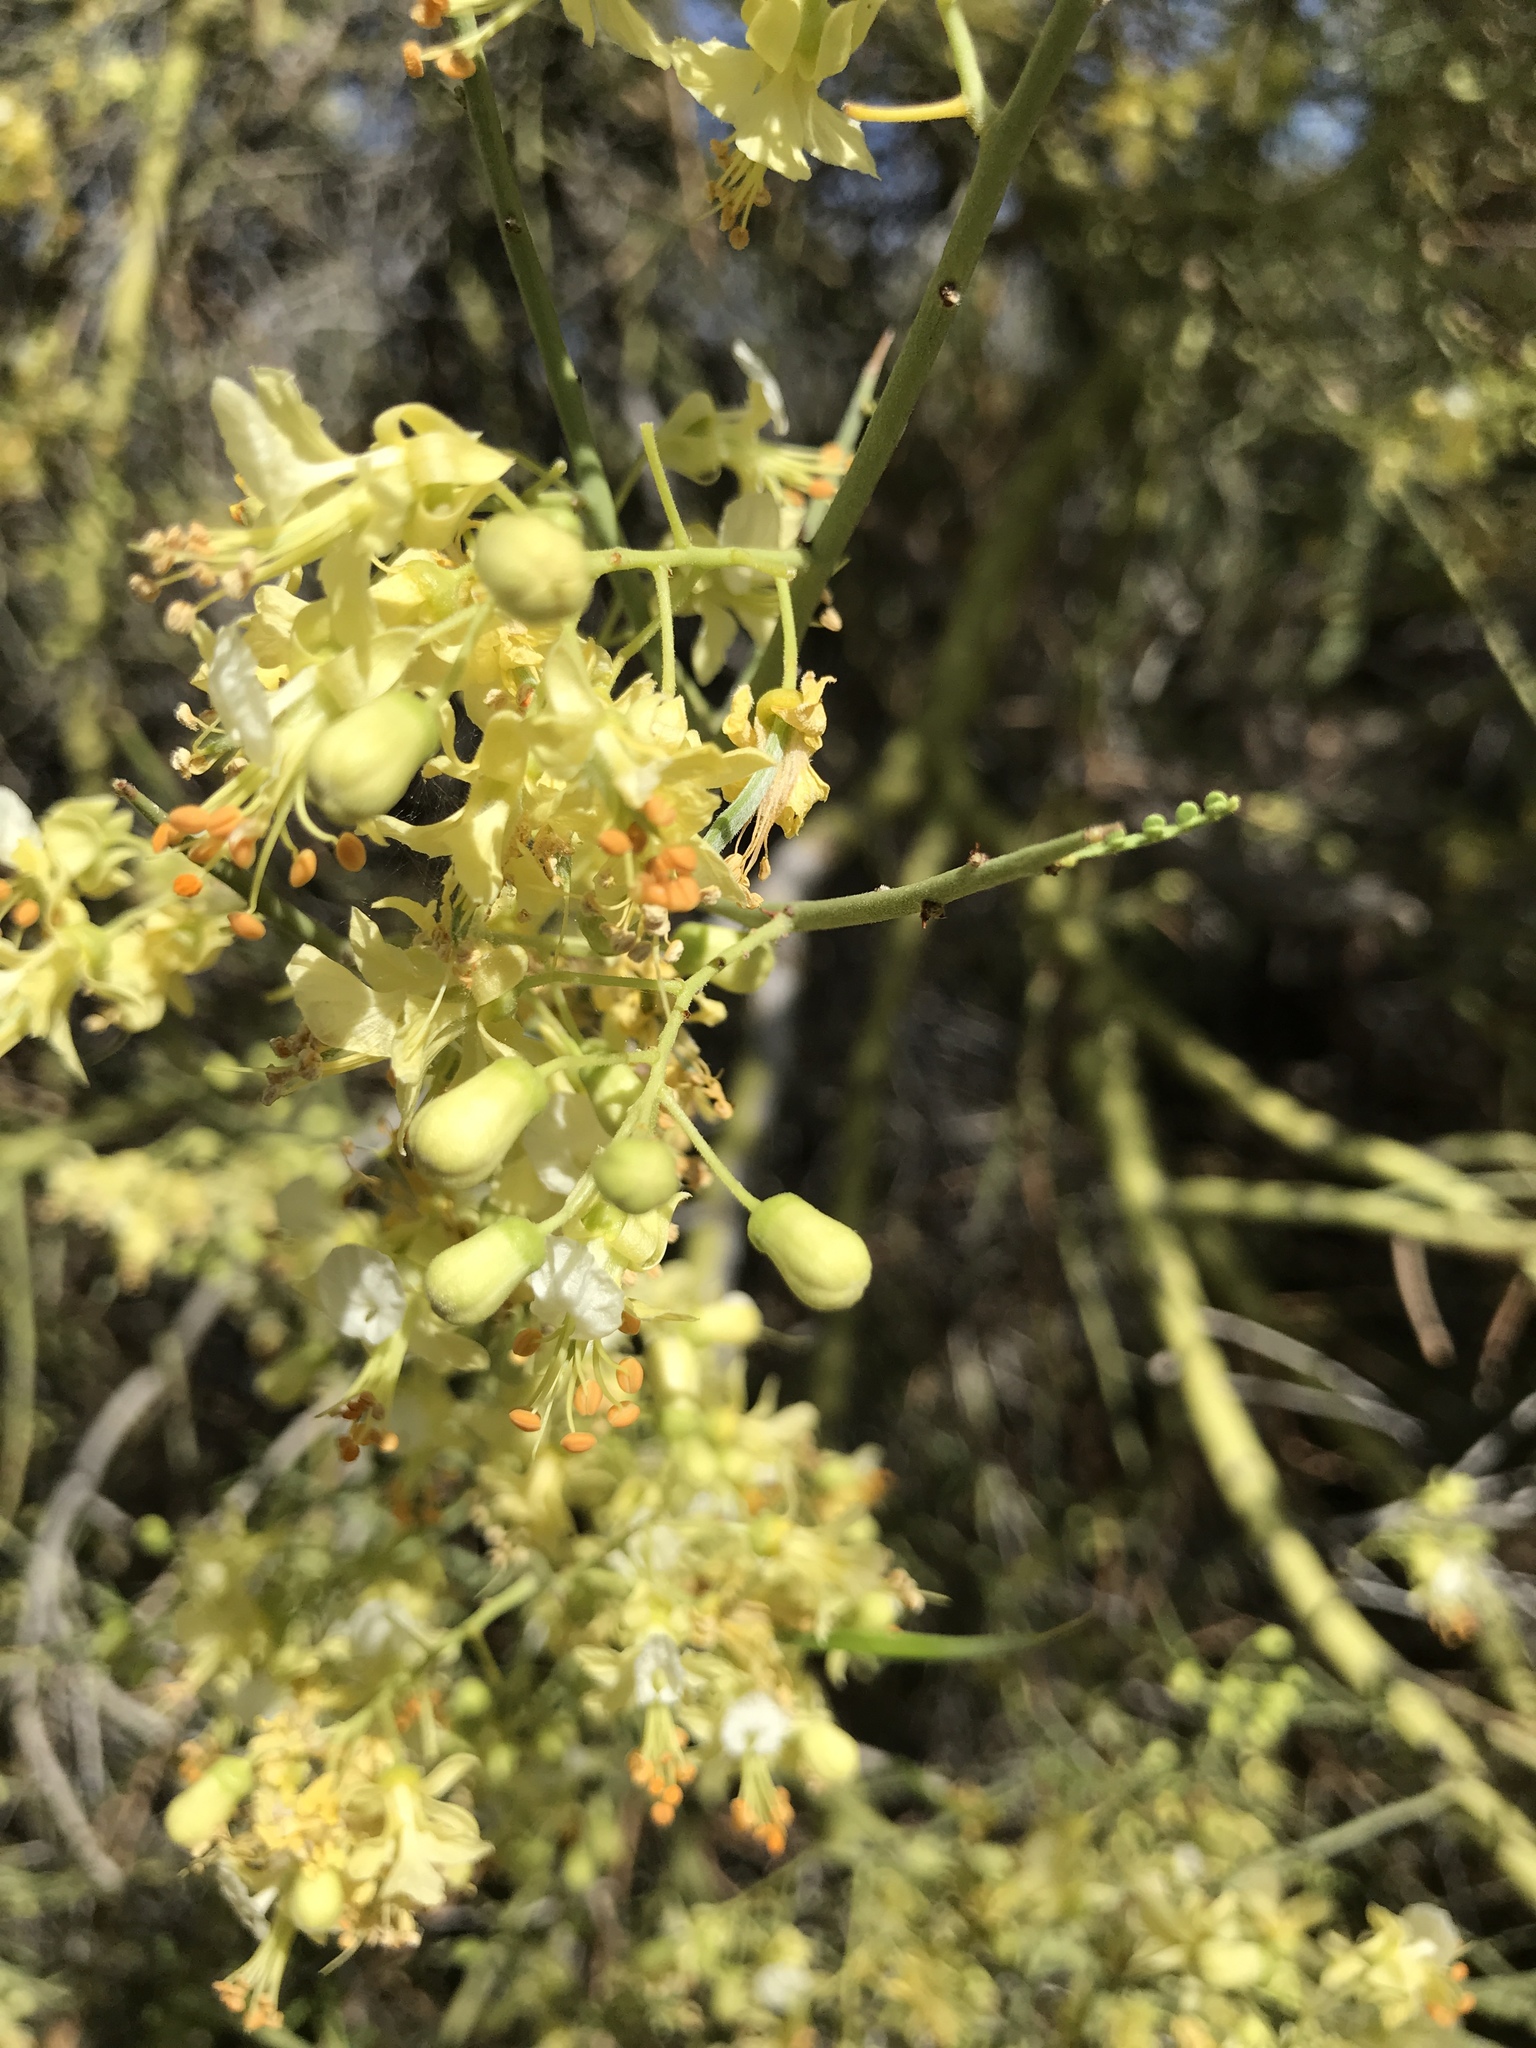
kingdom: Plantae
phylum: Tracheophyta
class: Magnoliopsida
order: Fabales
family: Fabaceae
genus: Parkinsonia
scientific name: Parkinsonia microphylla
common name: Yellow paloverde
